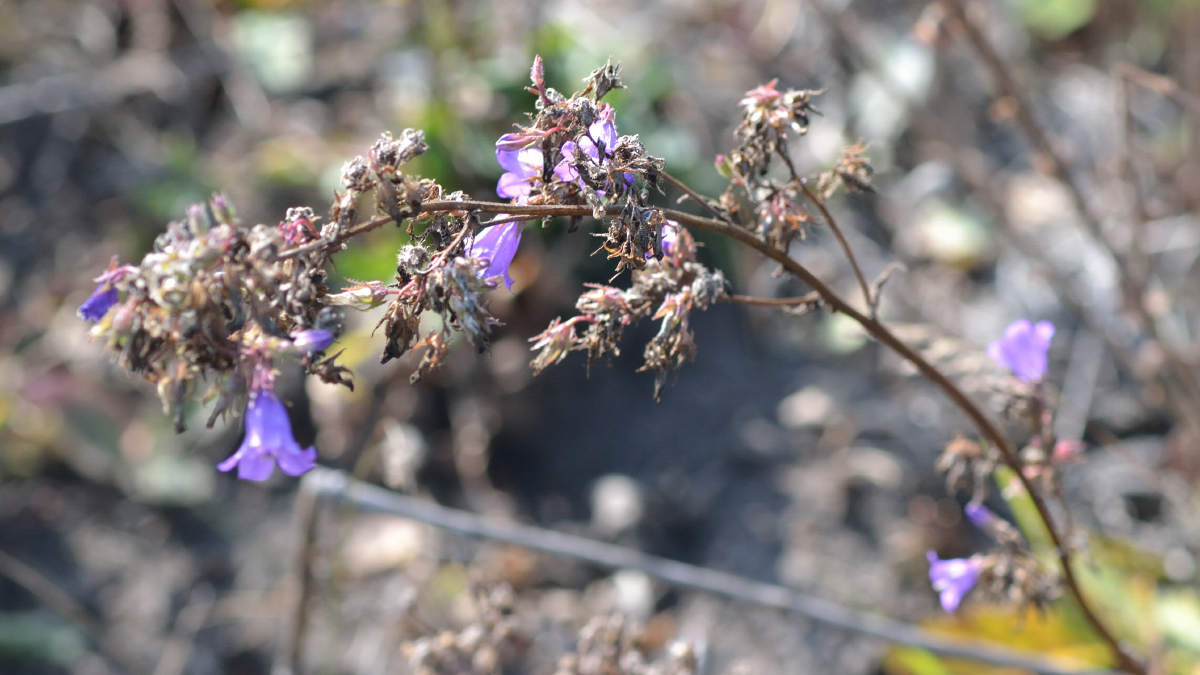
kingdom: Plantae
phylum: Tracheophyta
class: Magnoliopsida
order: Asterales
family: Campanulaceae
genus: Campanula
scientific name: Campanula sibirica
